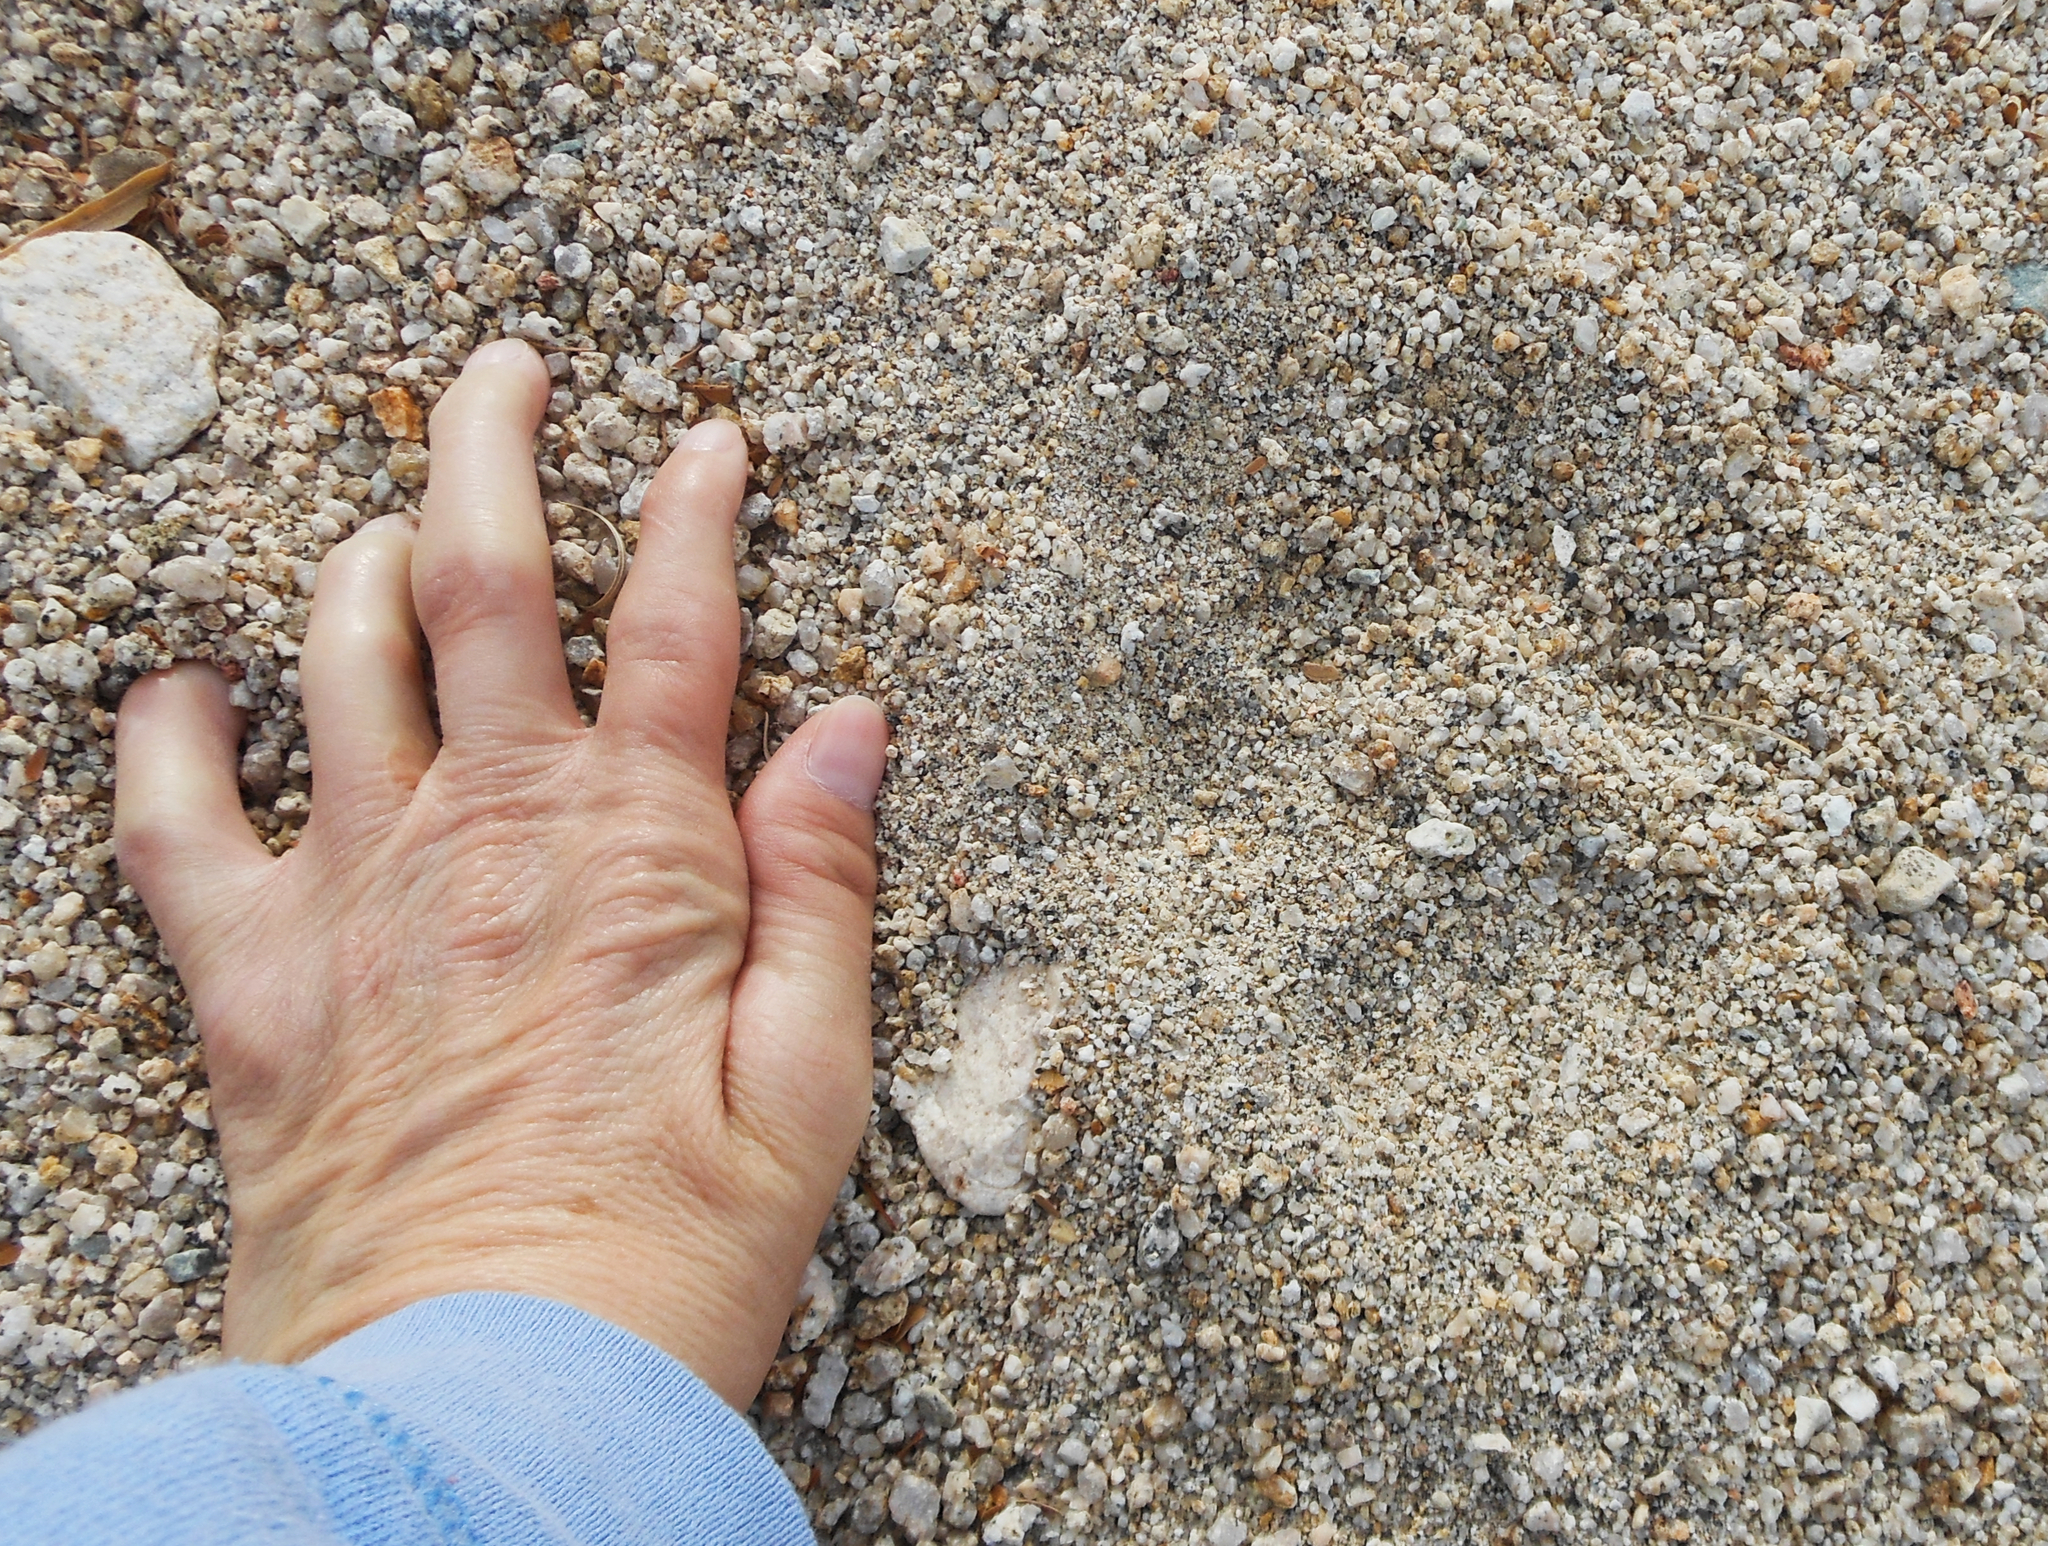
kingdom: Animalia
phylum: Chordata
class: Mammalia
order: Carnivora
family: Felidae
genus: Puma
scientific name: Puma concolor
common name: Puma
